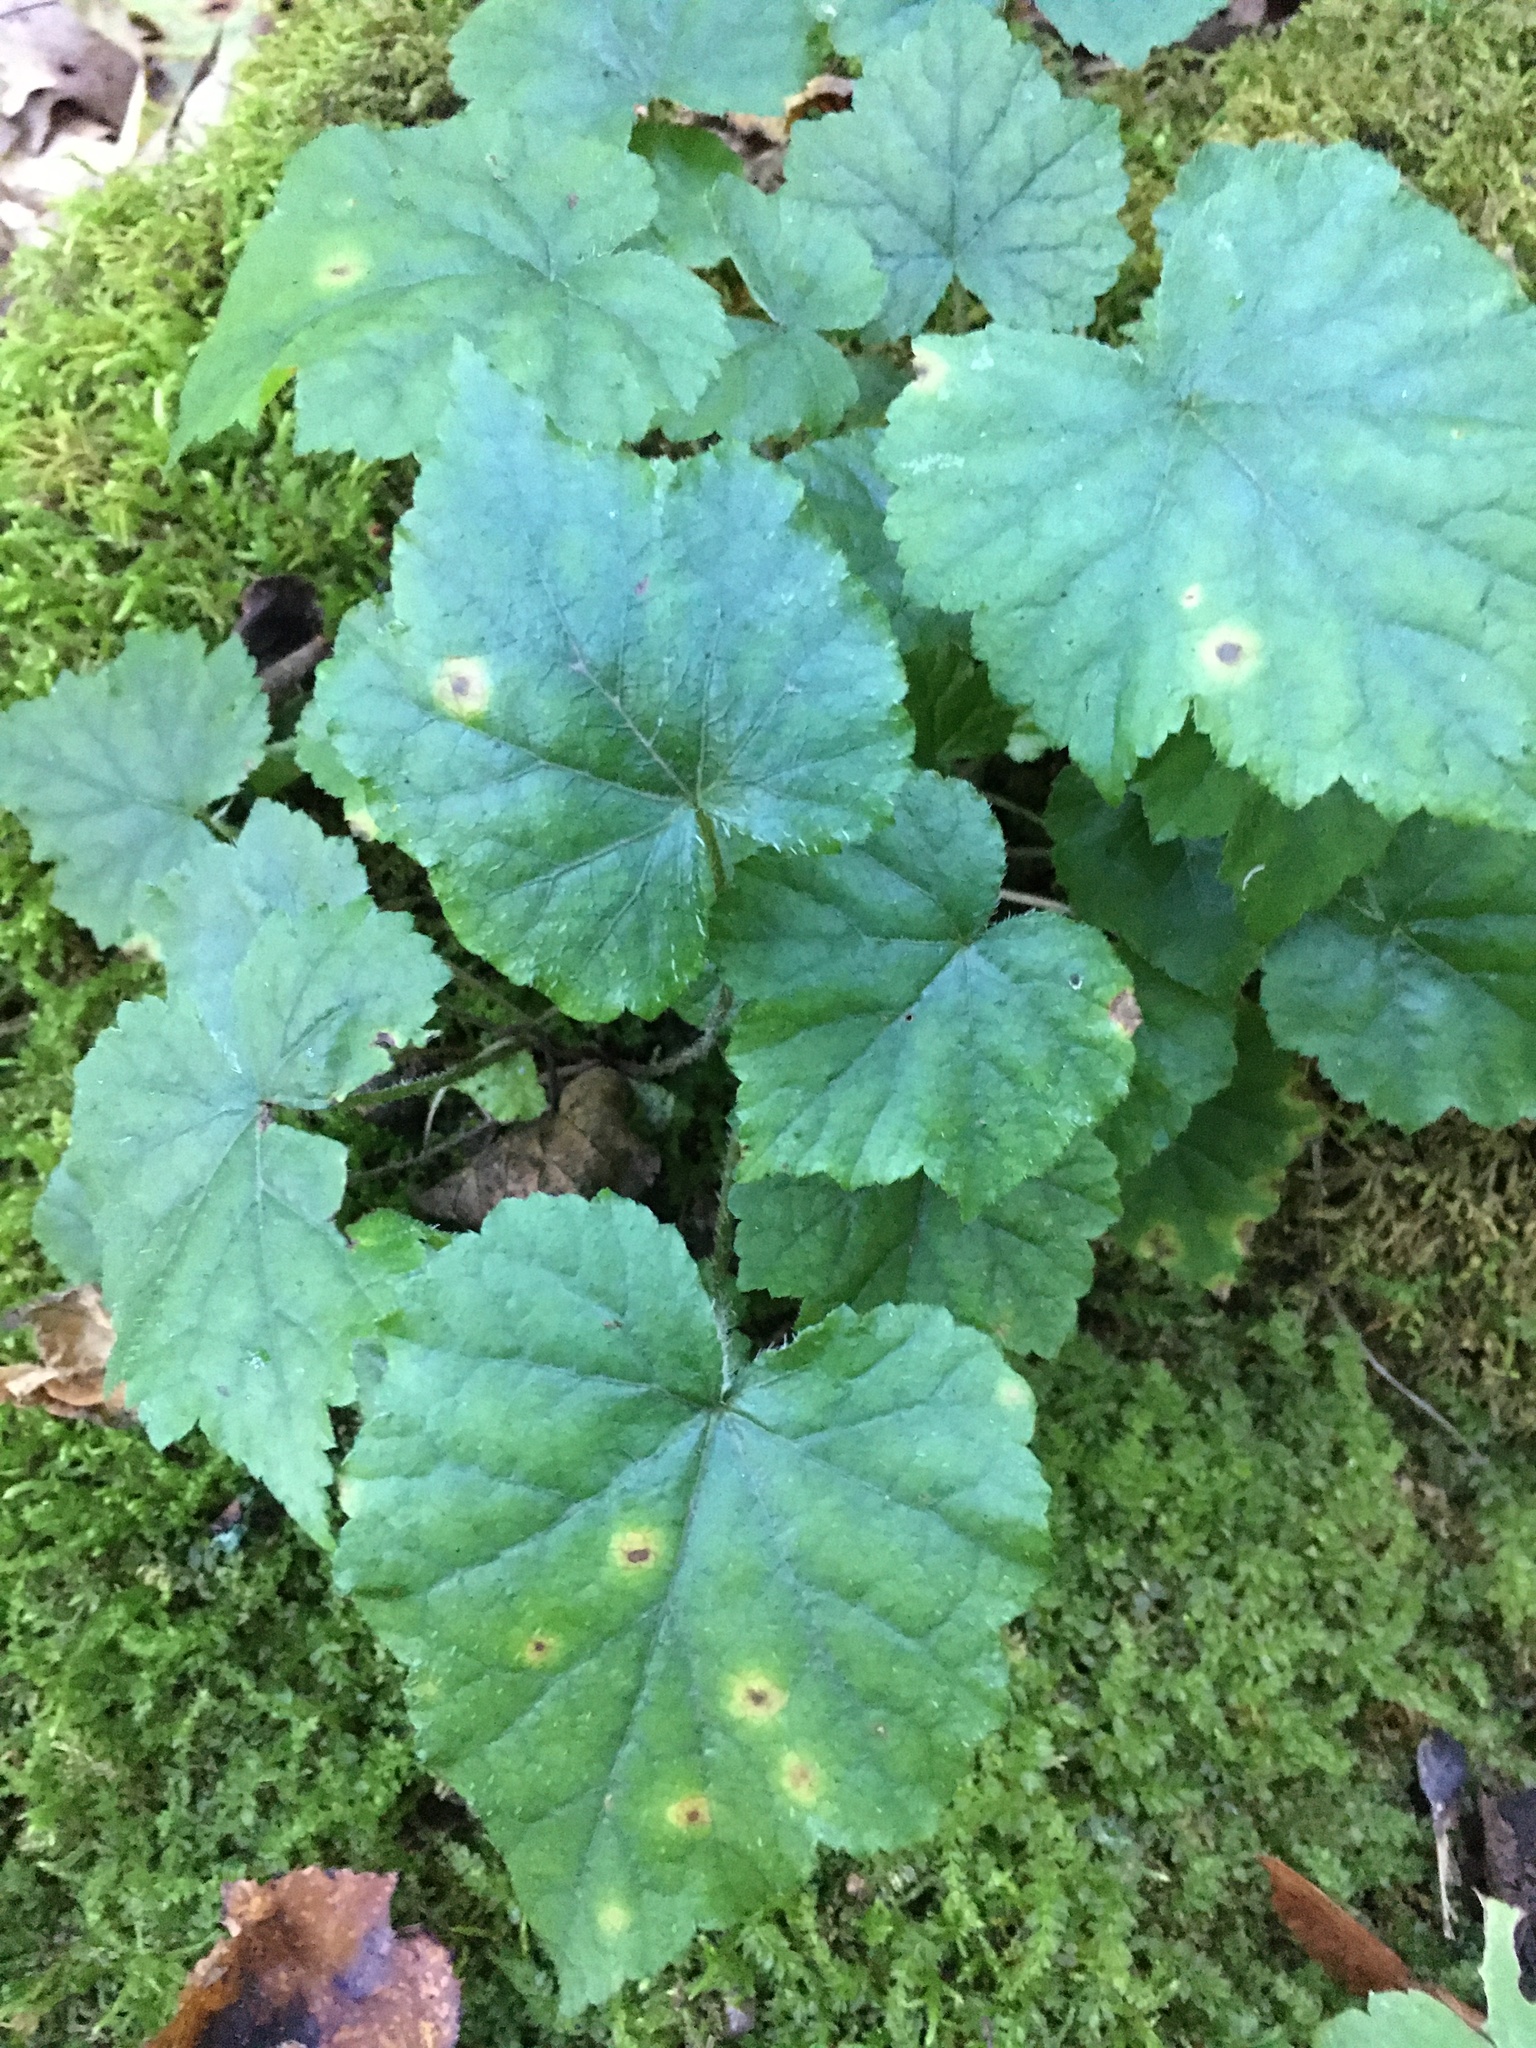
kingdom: Plantae
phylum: Tracheophyta
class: Magnoliopsida
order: Saxifragales
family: Saxifragaceae
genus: Mitella
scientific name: Mitella diphylla
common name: Coolwort
